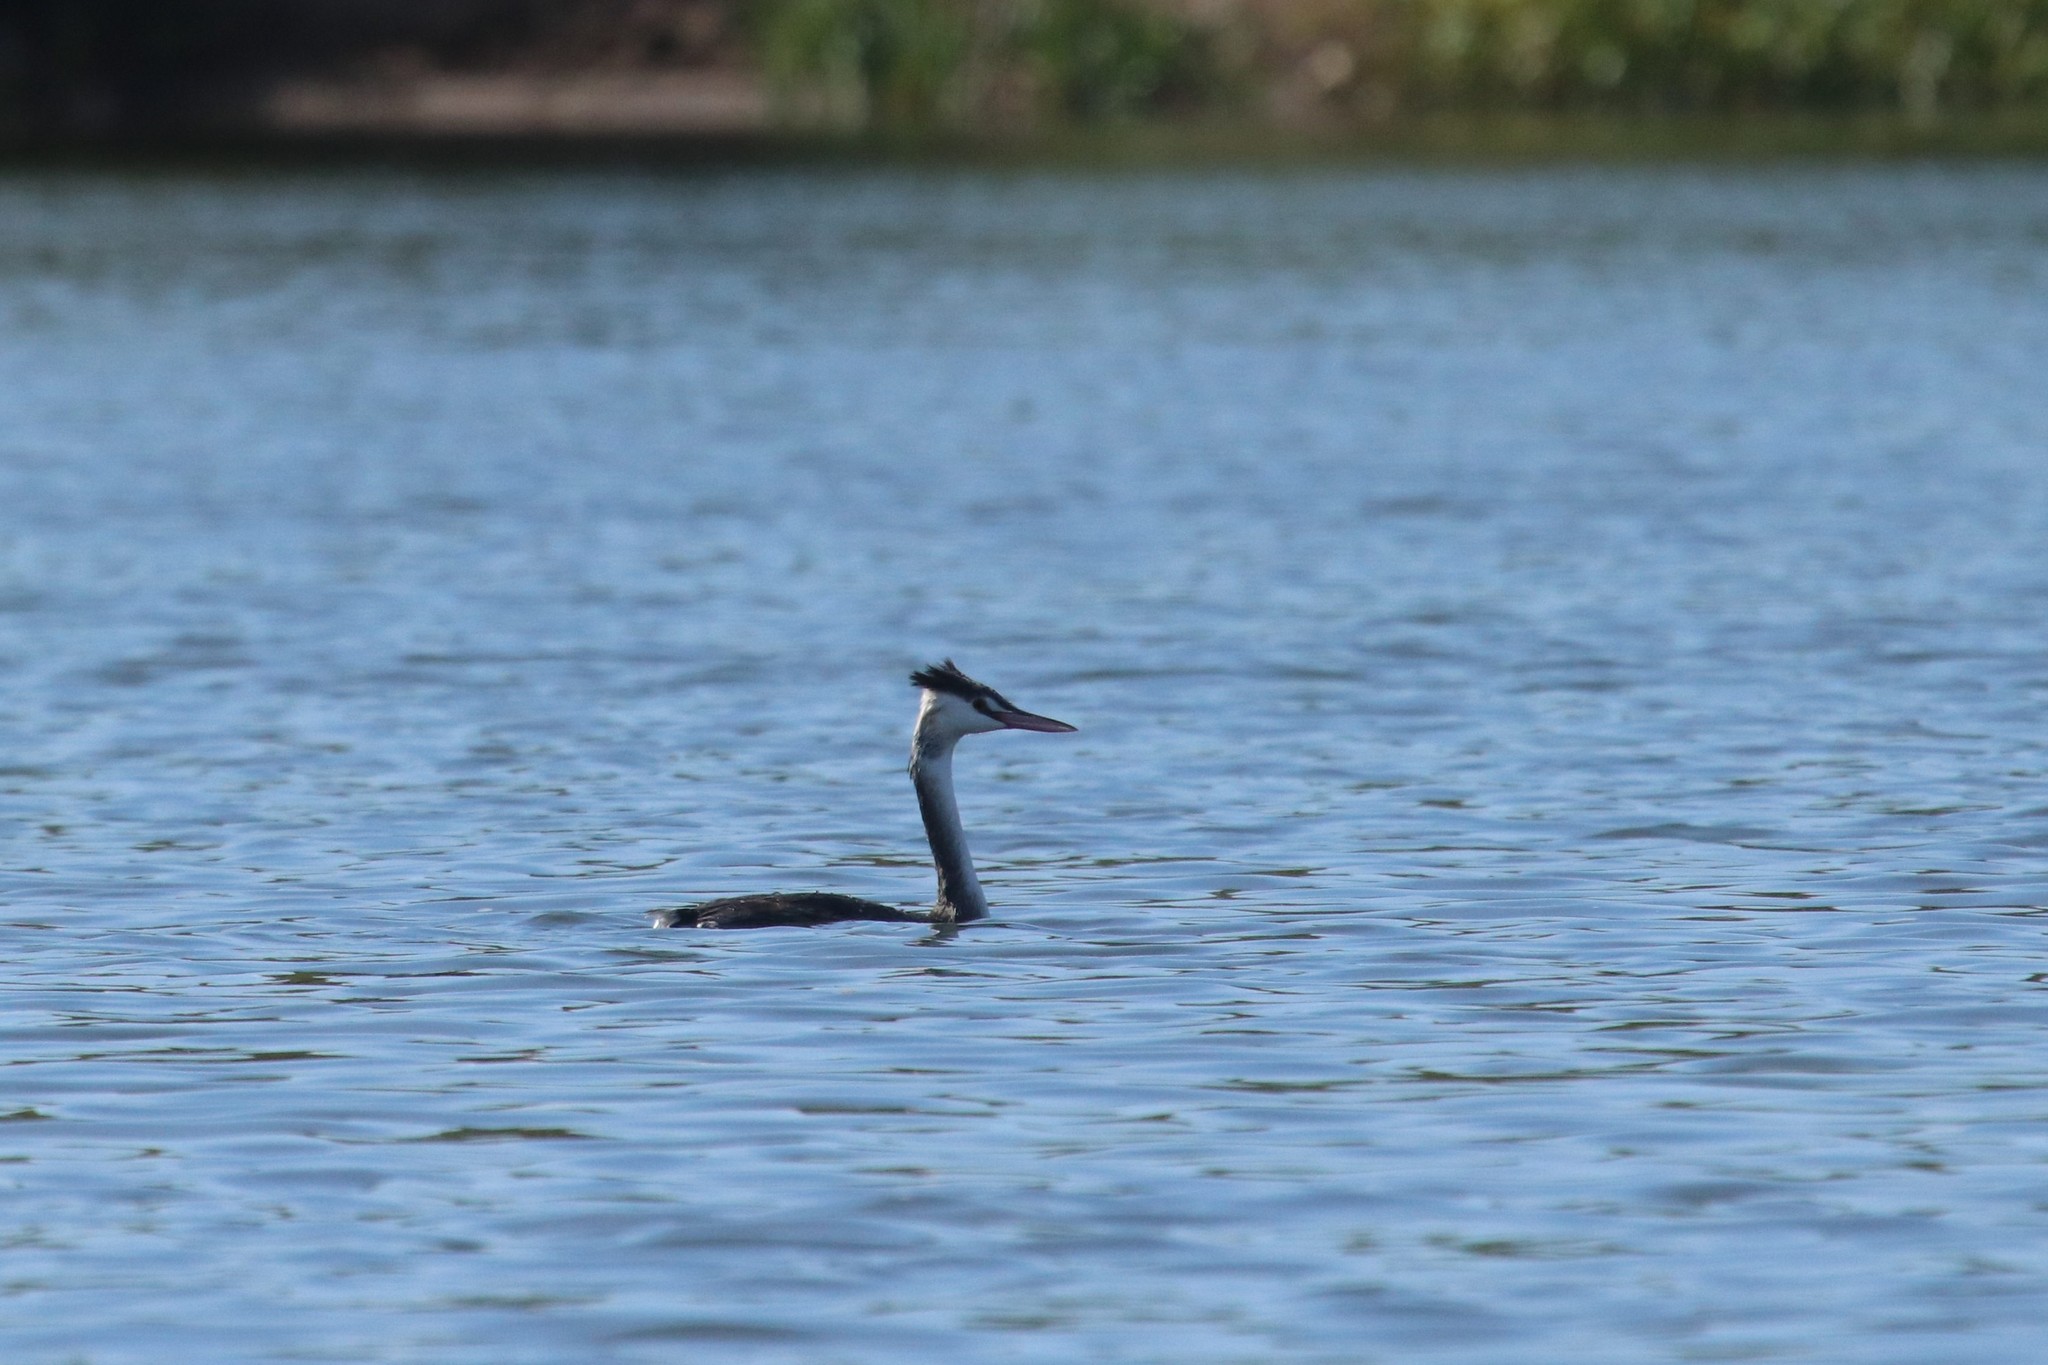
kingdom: Animalia
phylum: Chordata
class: Aves
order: Podicipediformes
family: Podicipedidae
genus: Podiceps
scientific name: Podiceps cristatus
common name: Great crested grebe
